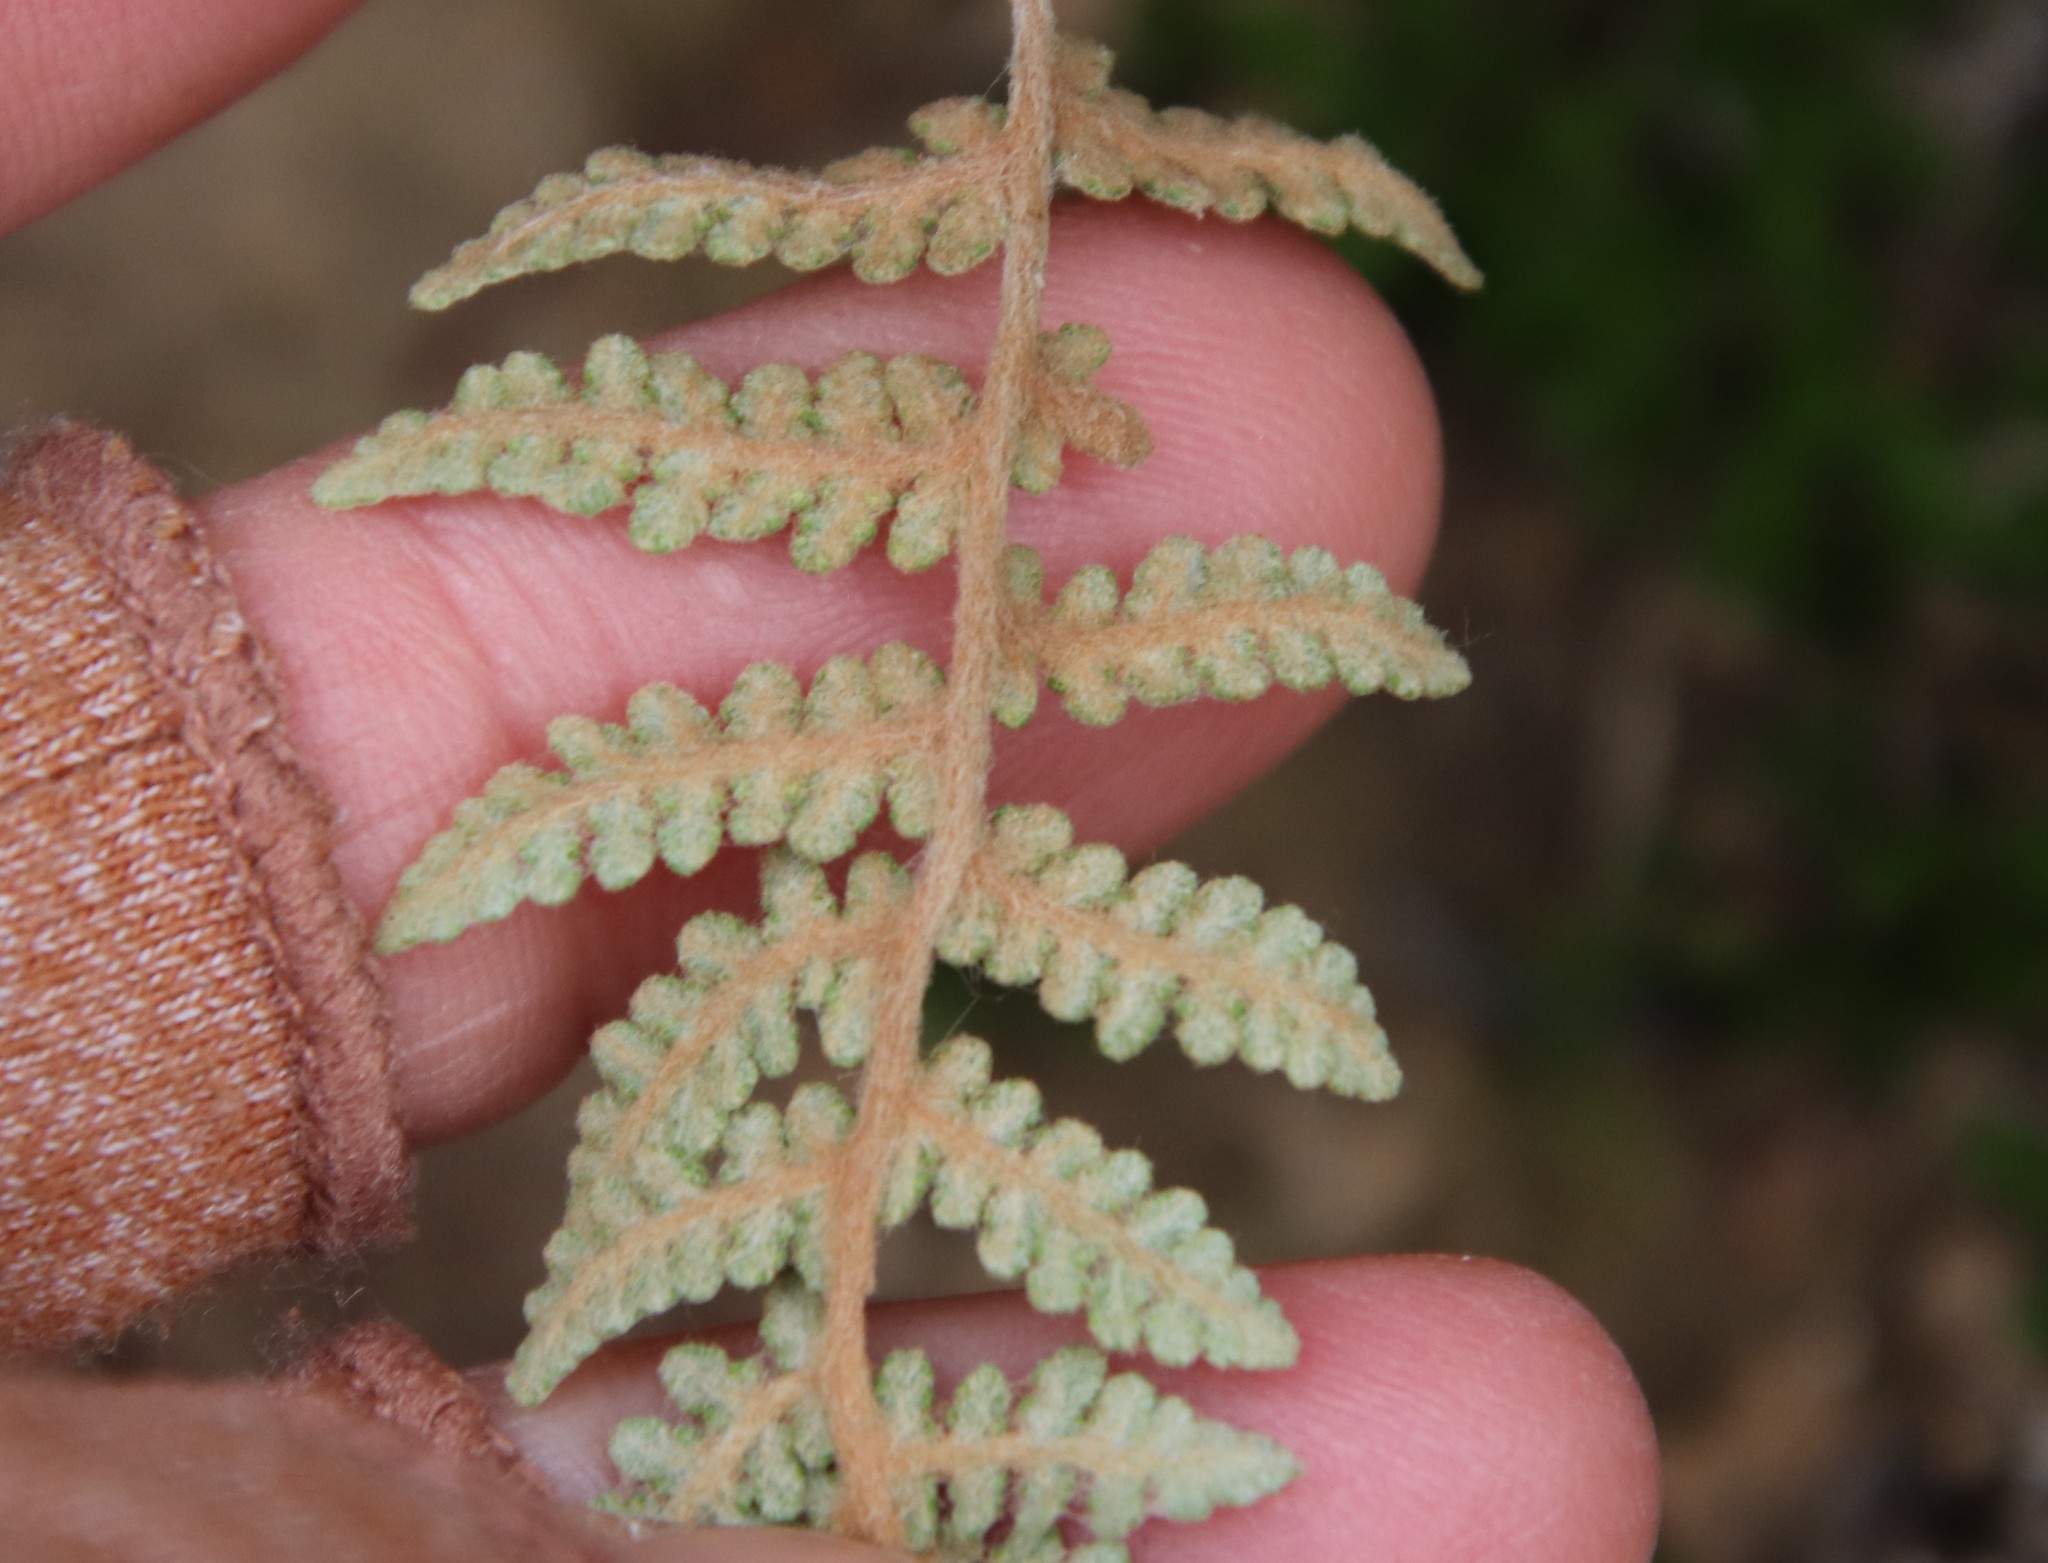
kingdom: Plantae
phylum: Tracheophyta
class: Polypodiopsida
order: Polypodiales
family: Pteridaceae
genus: Myriopteris
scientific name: Myriopteris newberryi
